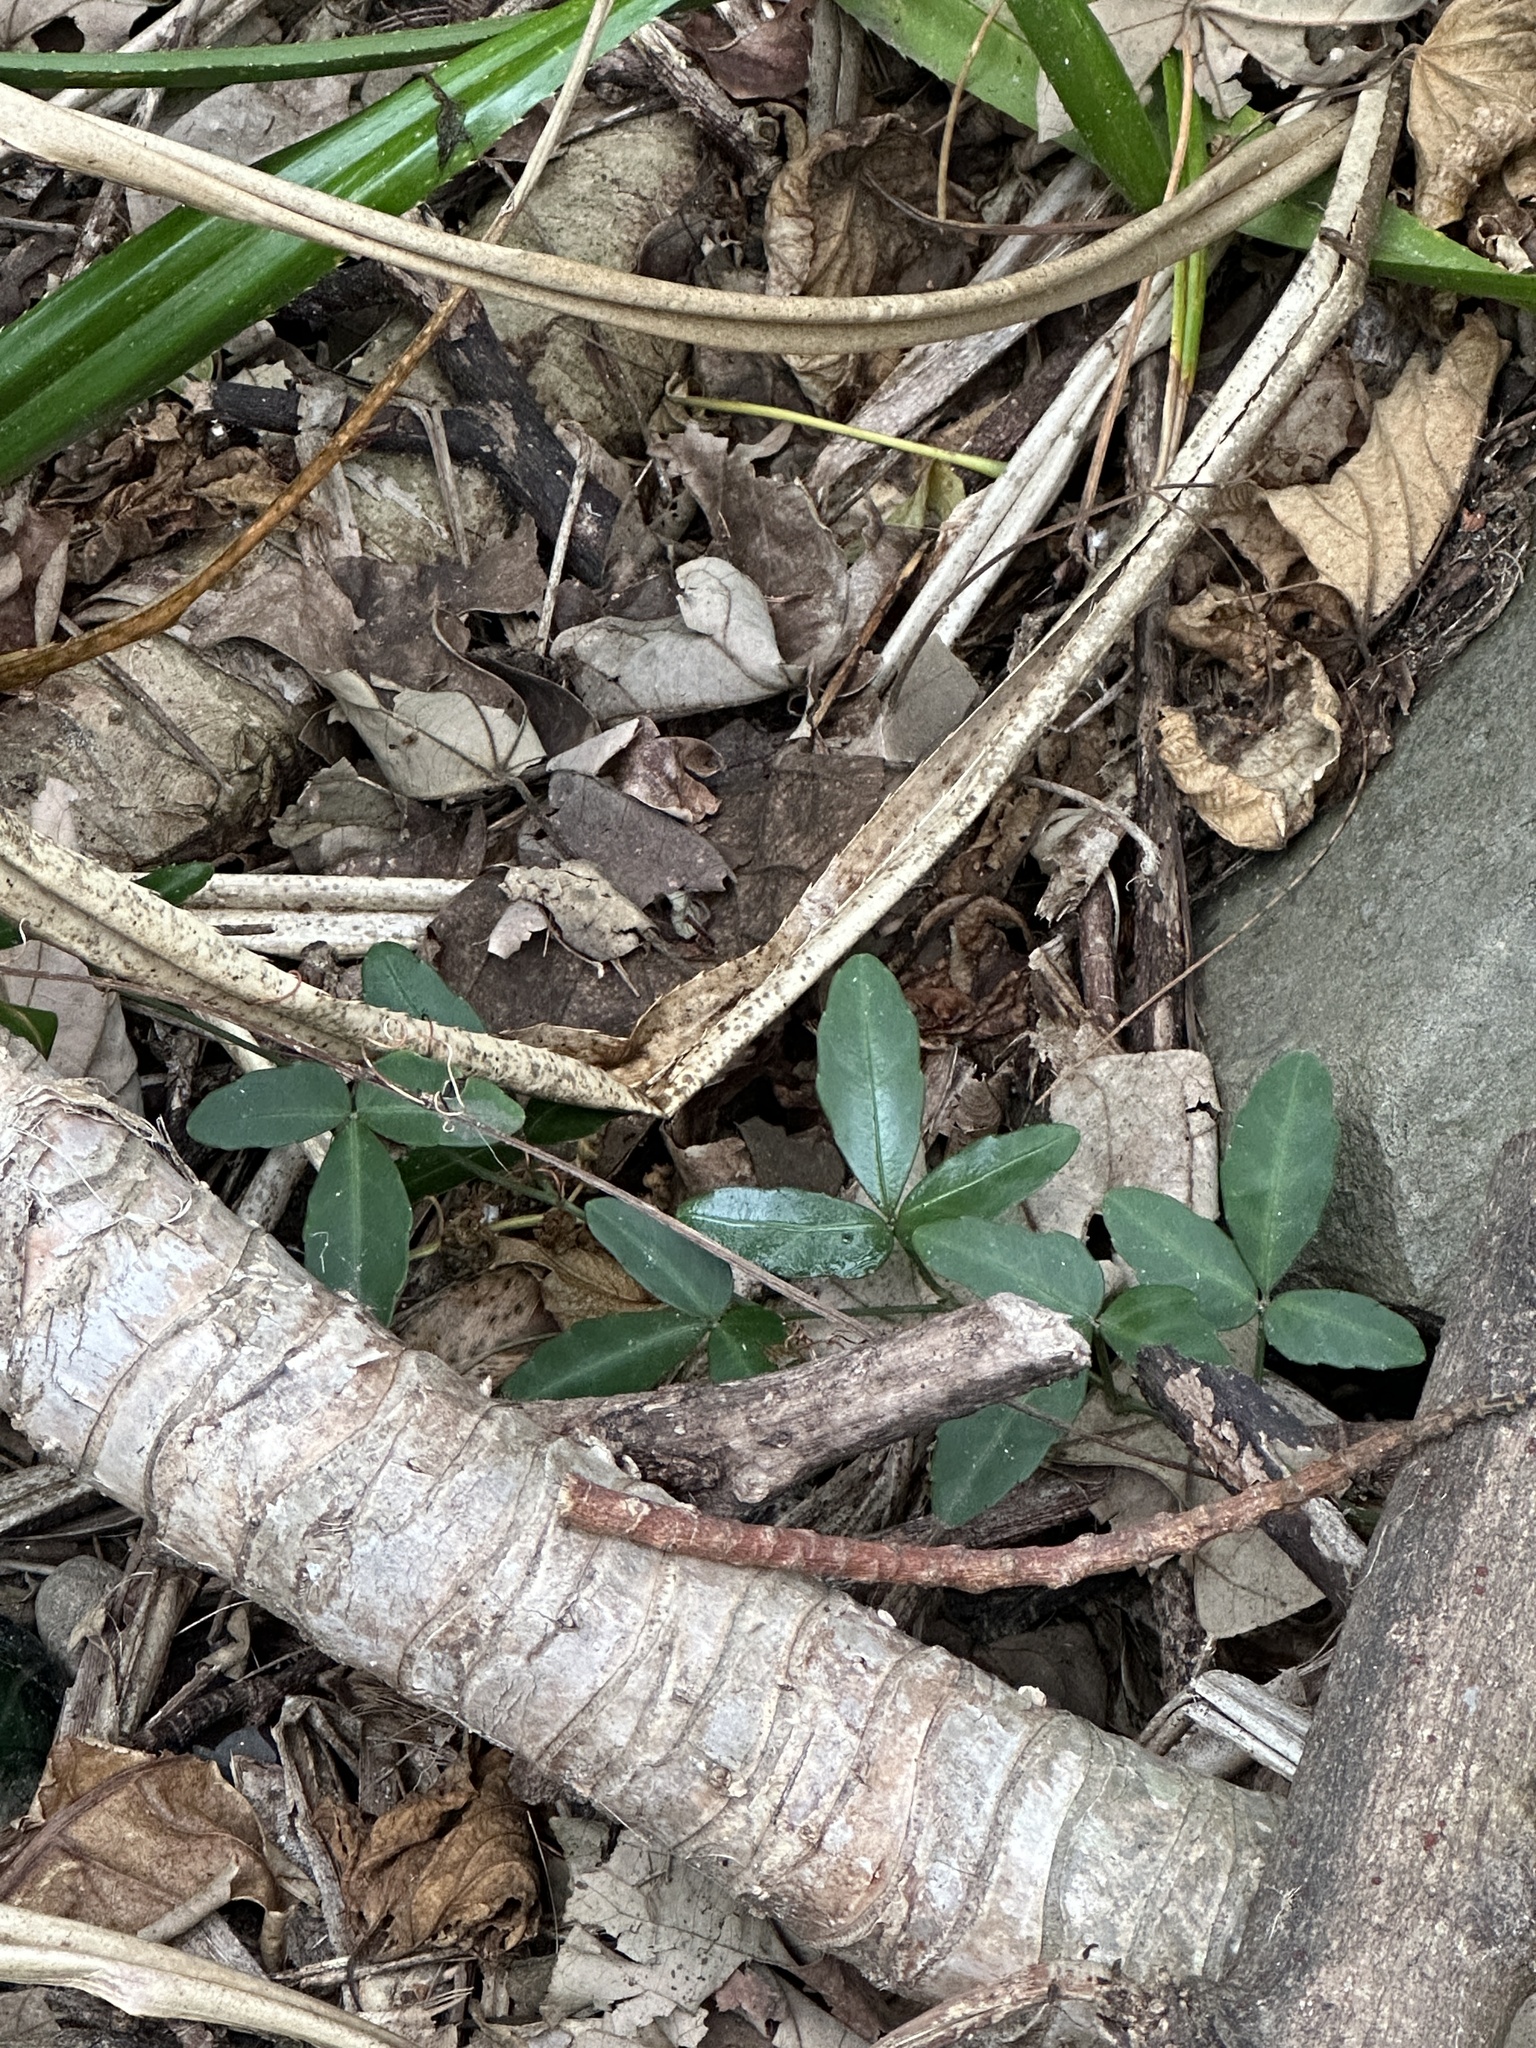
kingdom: Plantae
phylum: Tracheophyta
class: Magnoliopsida
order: Vitales
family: Vitaceae
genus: Tetrastigma
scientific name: Tetrastigma formosanum
